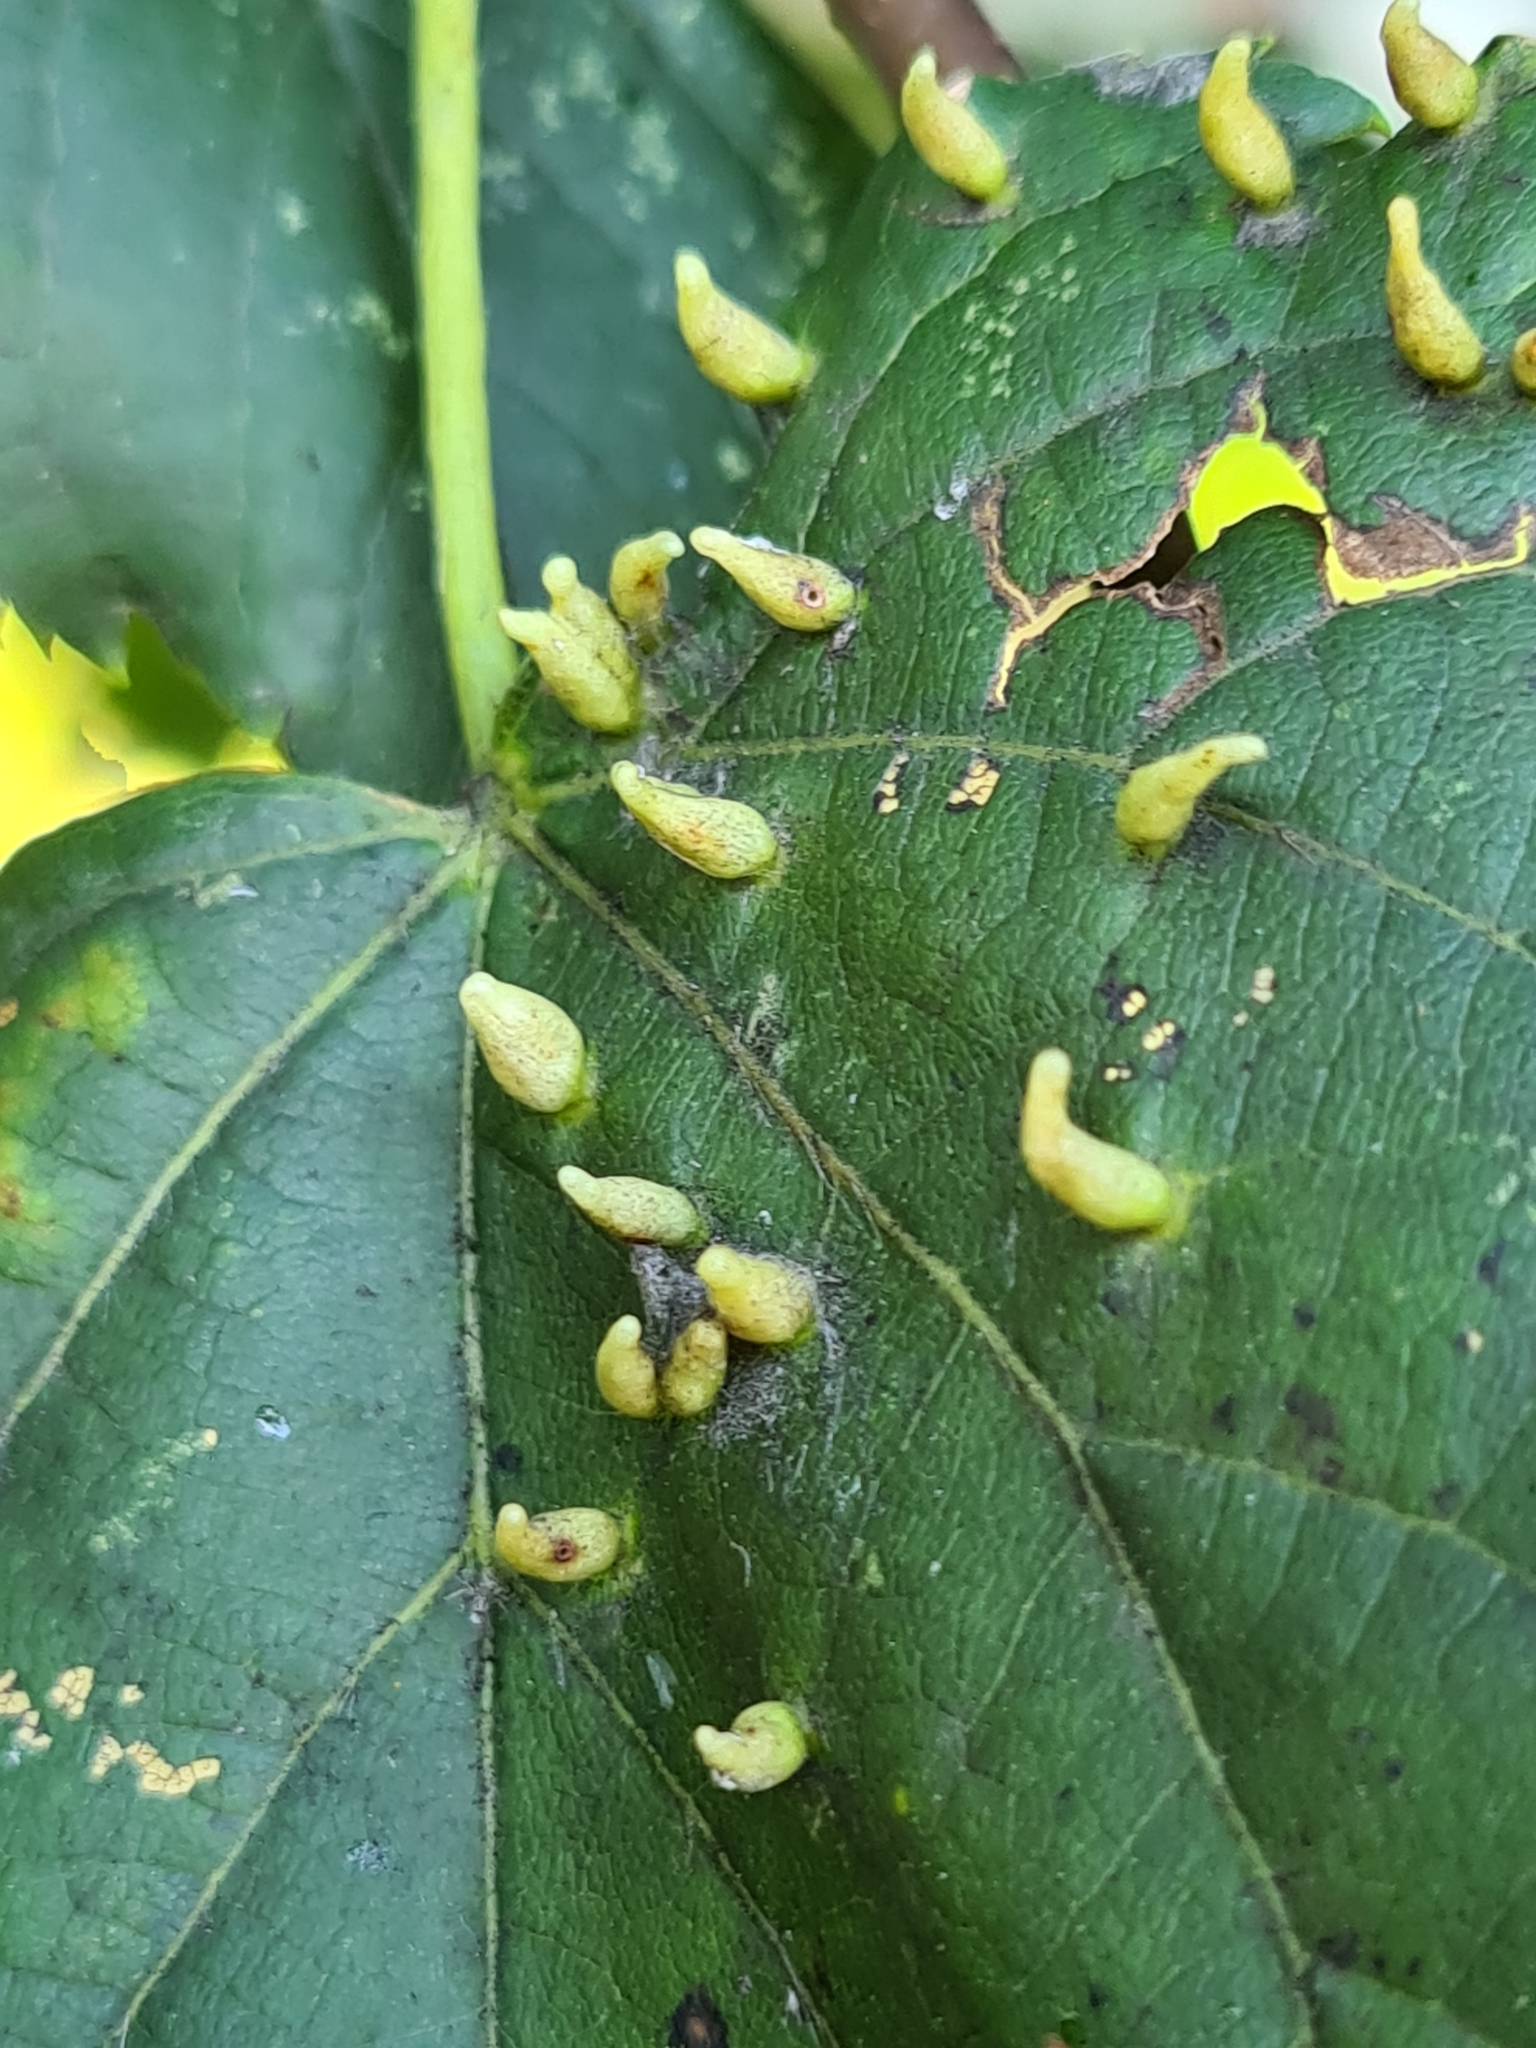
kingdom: Animalia
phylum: Arthropoda
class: Arachnida
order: Trombidiformes
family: Eriophyidae
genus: Eriophyes
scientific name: Eriophyes tiliae
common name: Red nail gall mite
